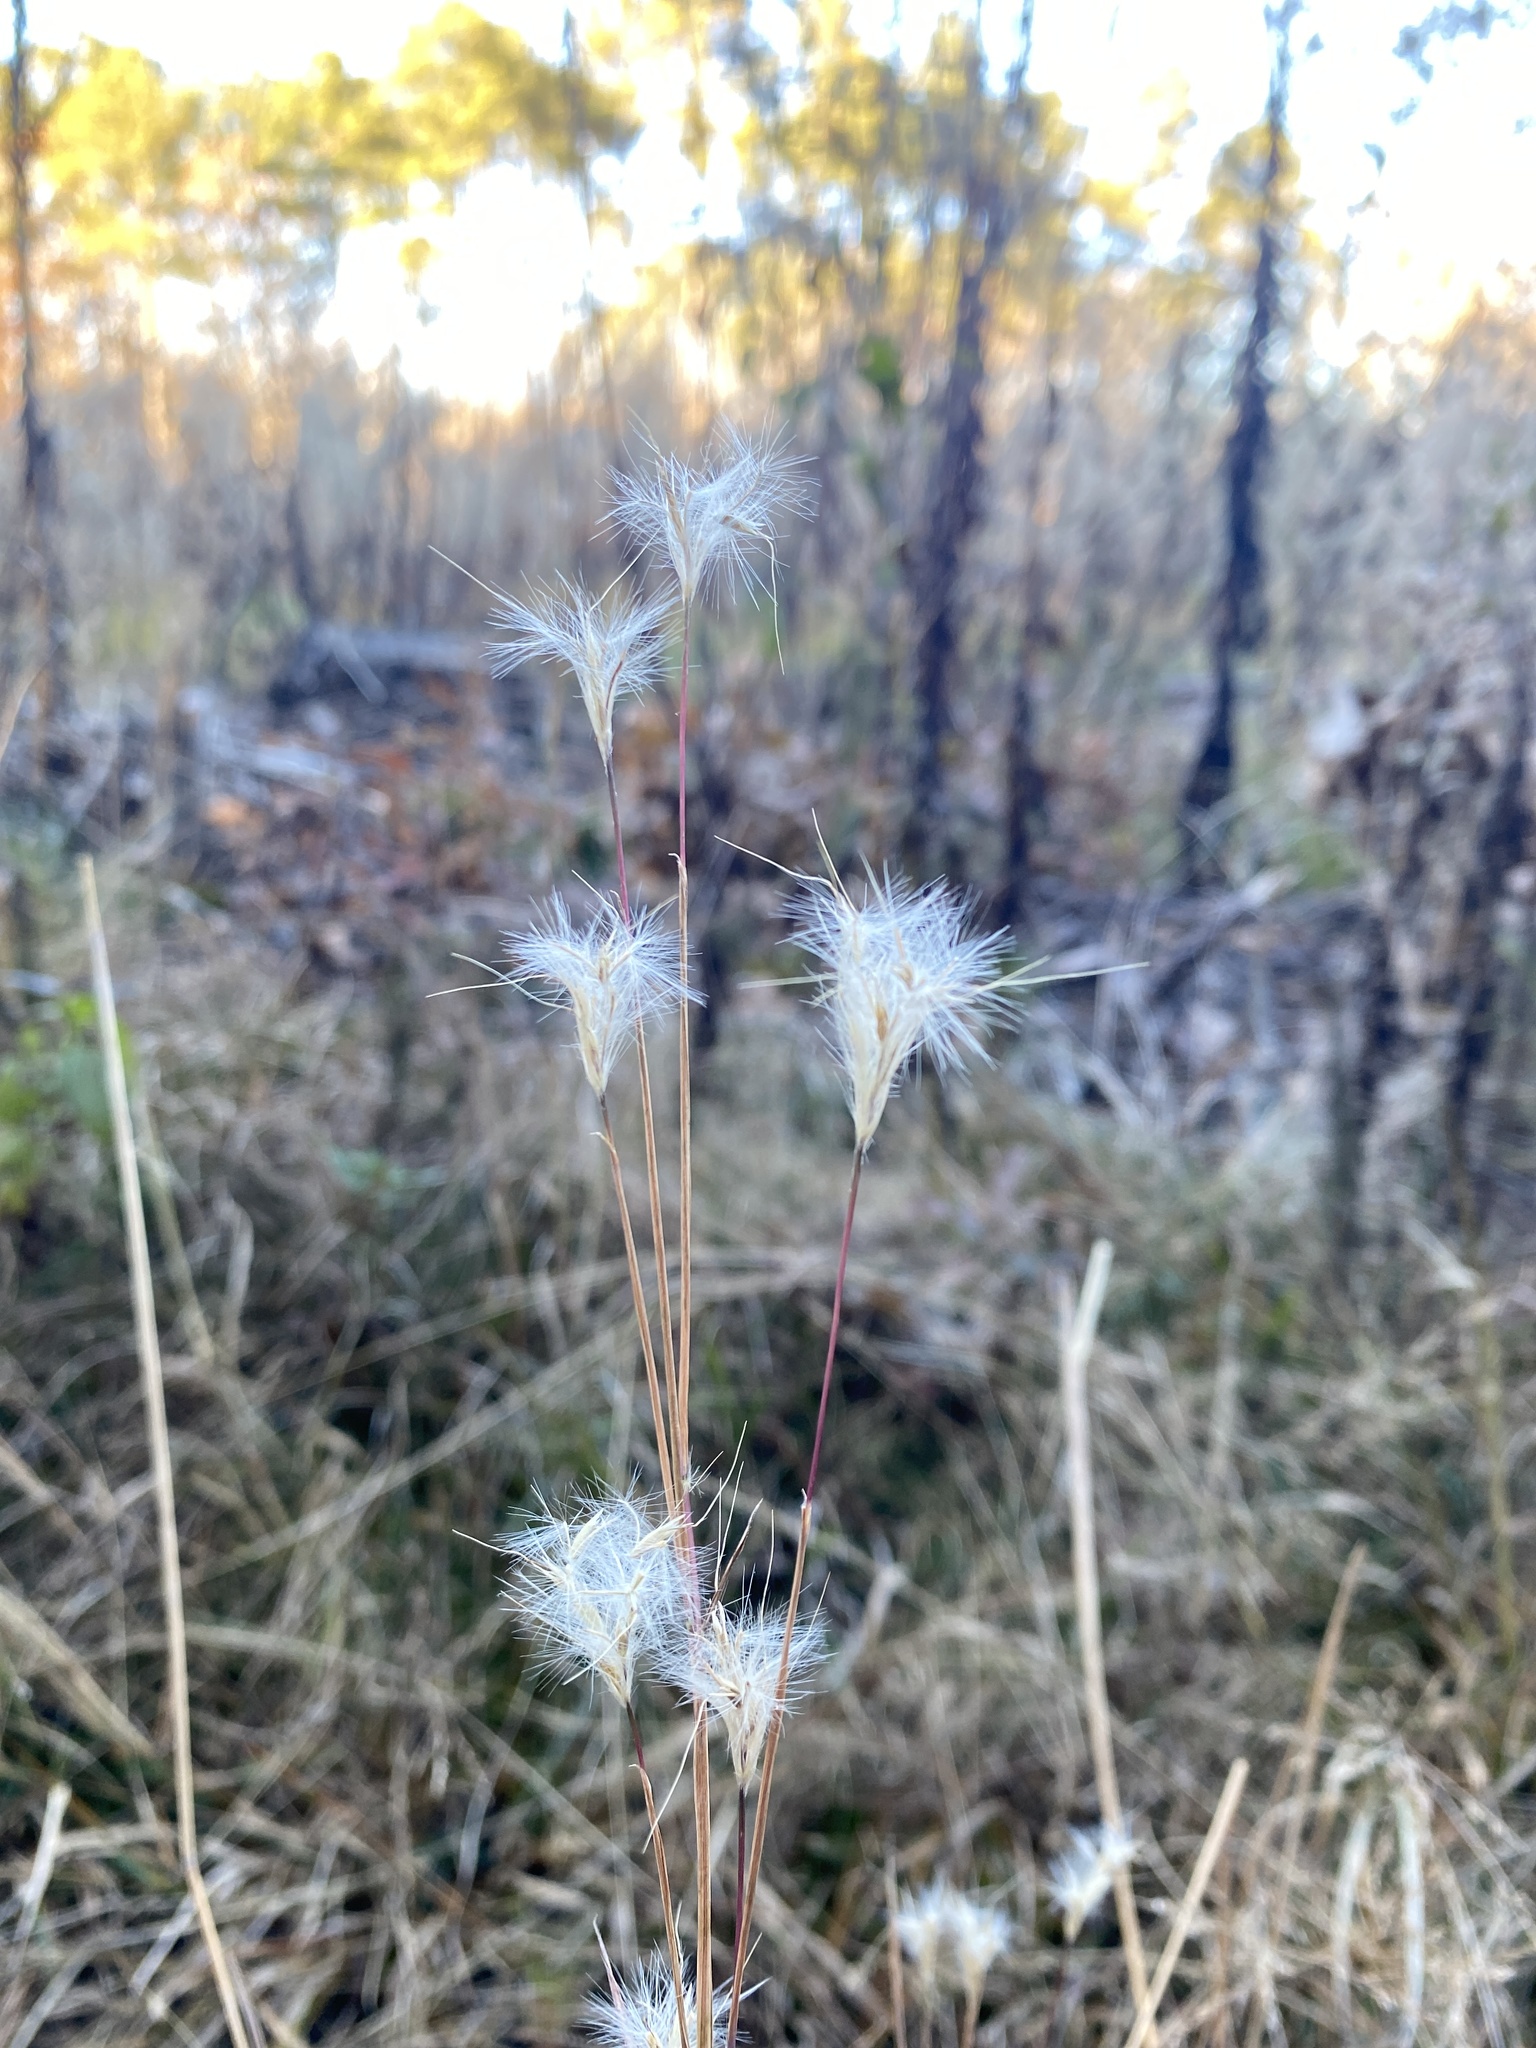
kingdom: Plantae
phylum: Tracheophyta
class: Liliopsida
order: Poales
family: Poaceae
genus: Andropogon
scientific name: Andropogon ternarius
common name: Split bluestem
